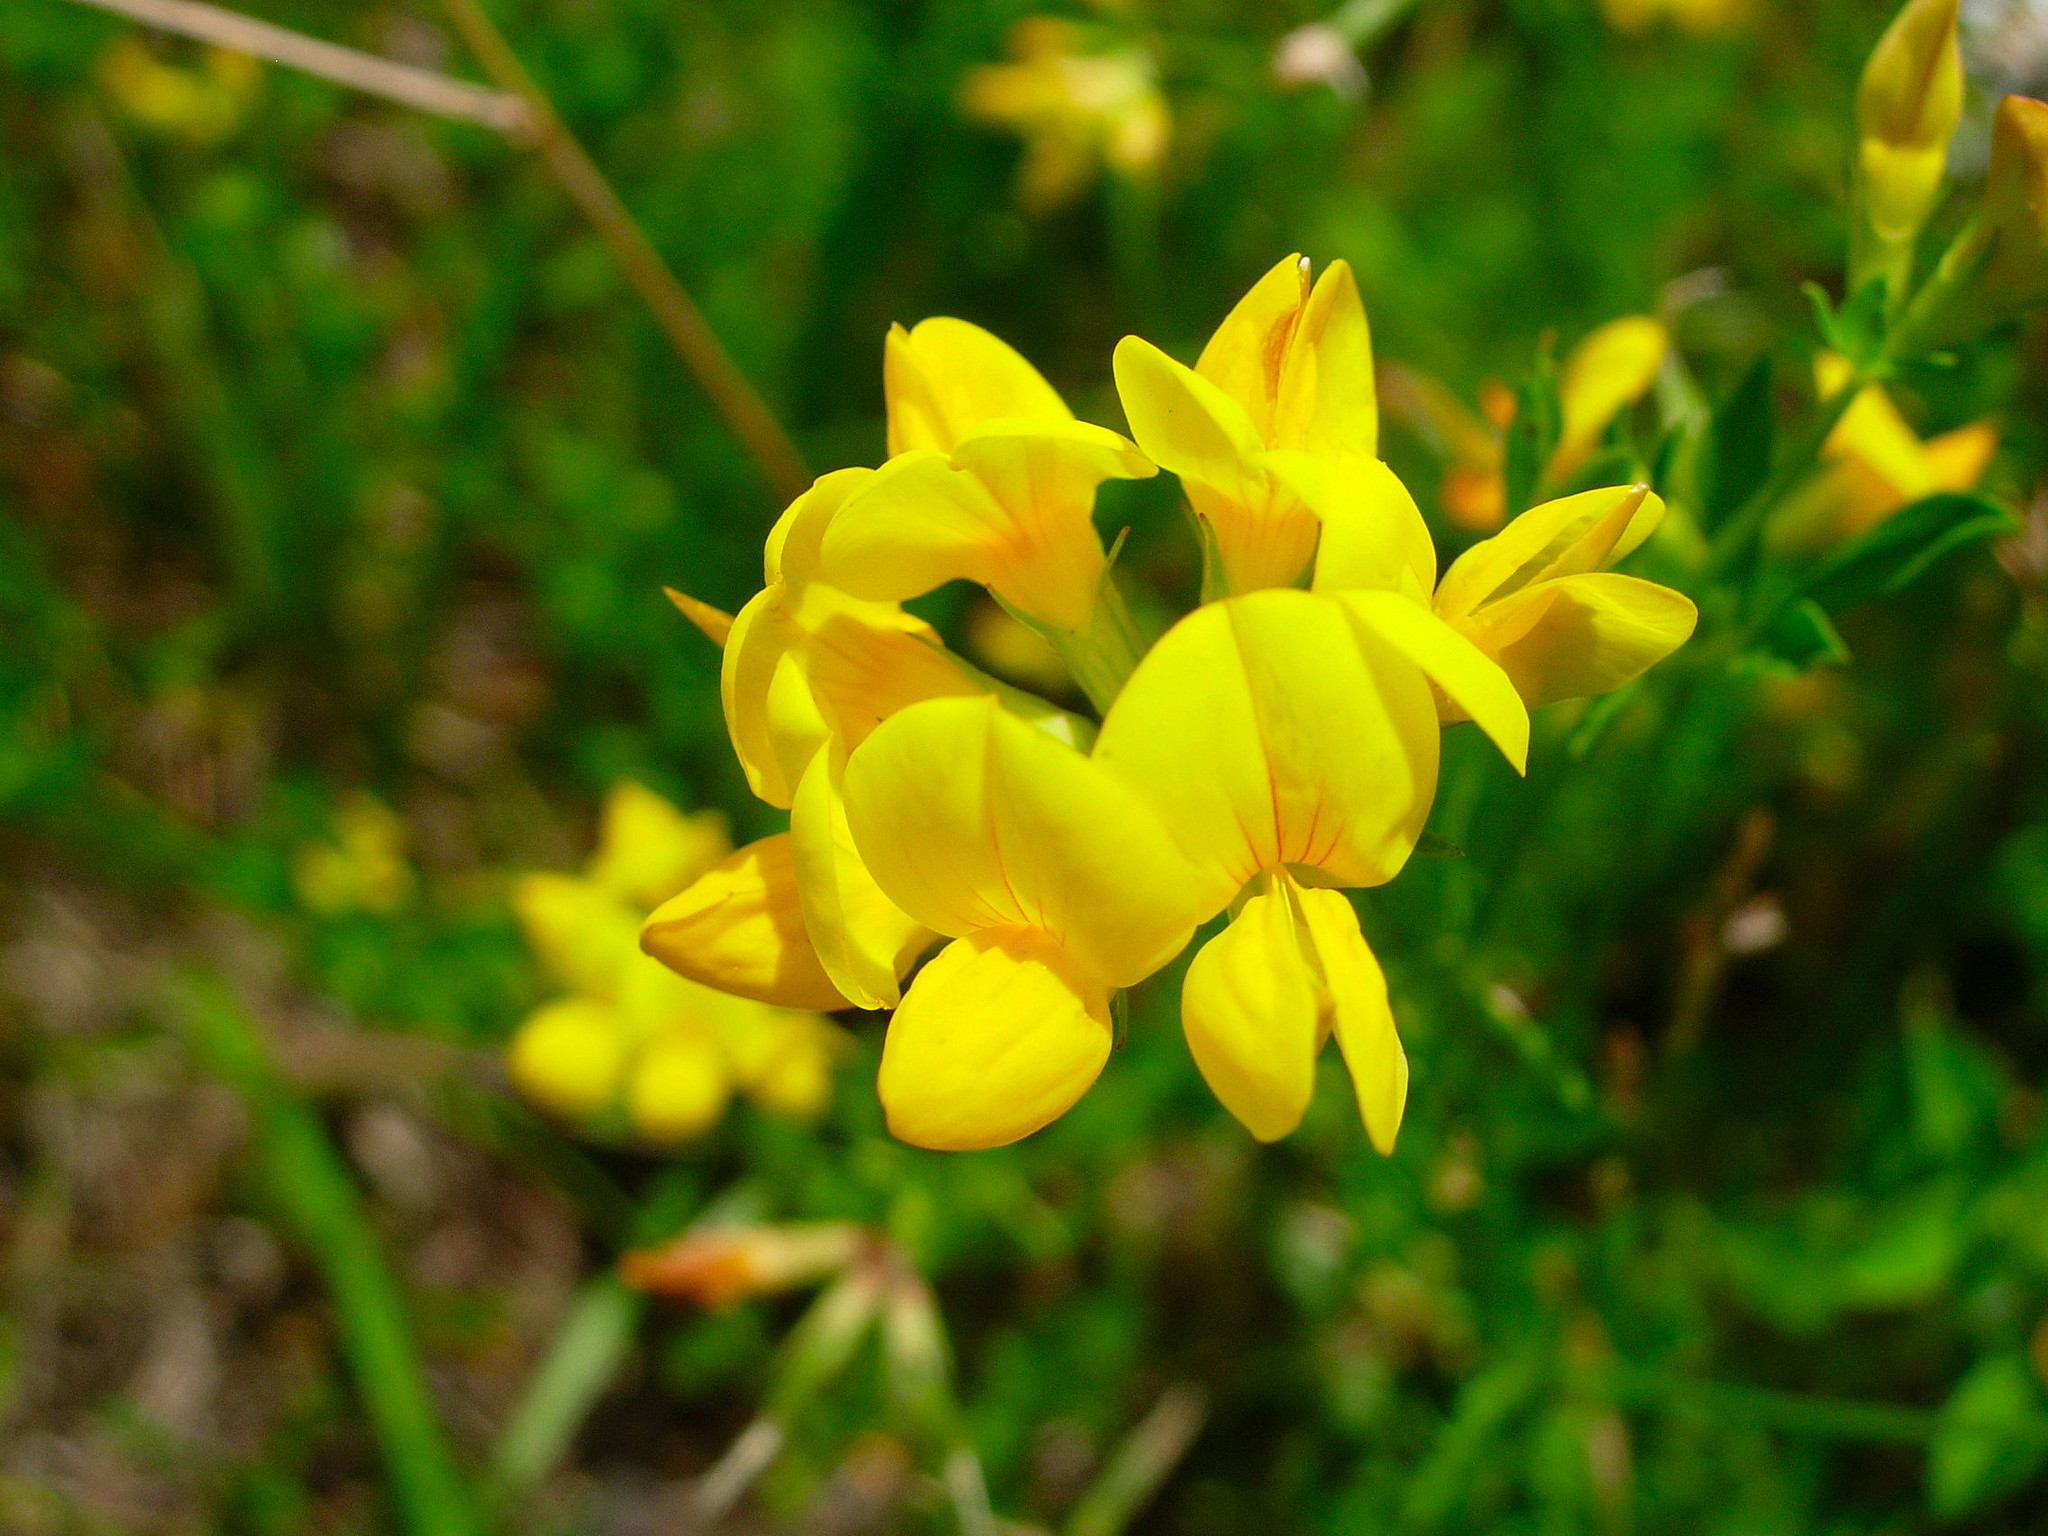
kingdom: Plantae
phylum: Tracheophyta
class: Magnoliopsida
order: Fabales
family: Fabaceae
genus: Lotus
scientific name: Lotus corniculatus
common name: Common bird's-foot-trefoil
